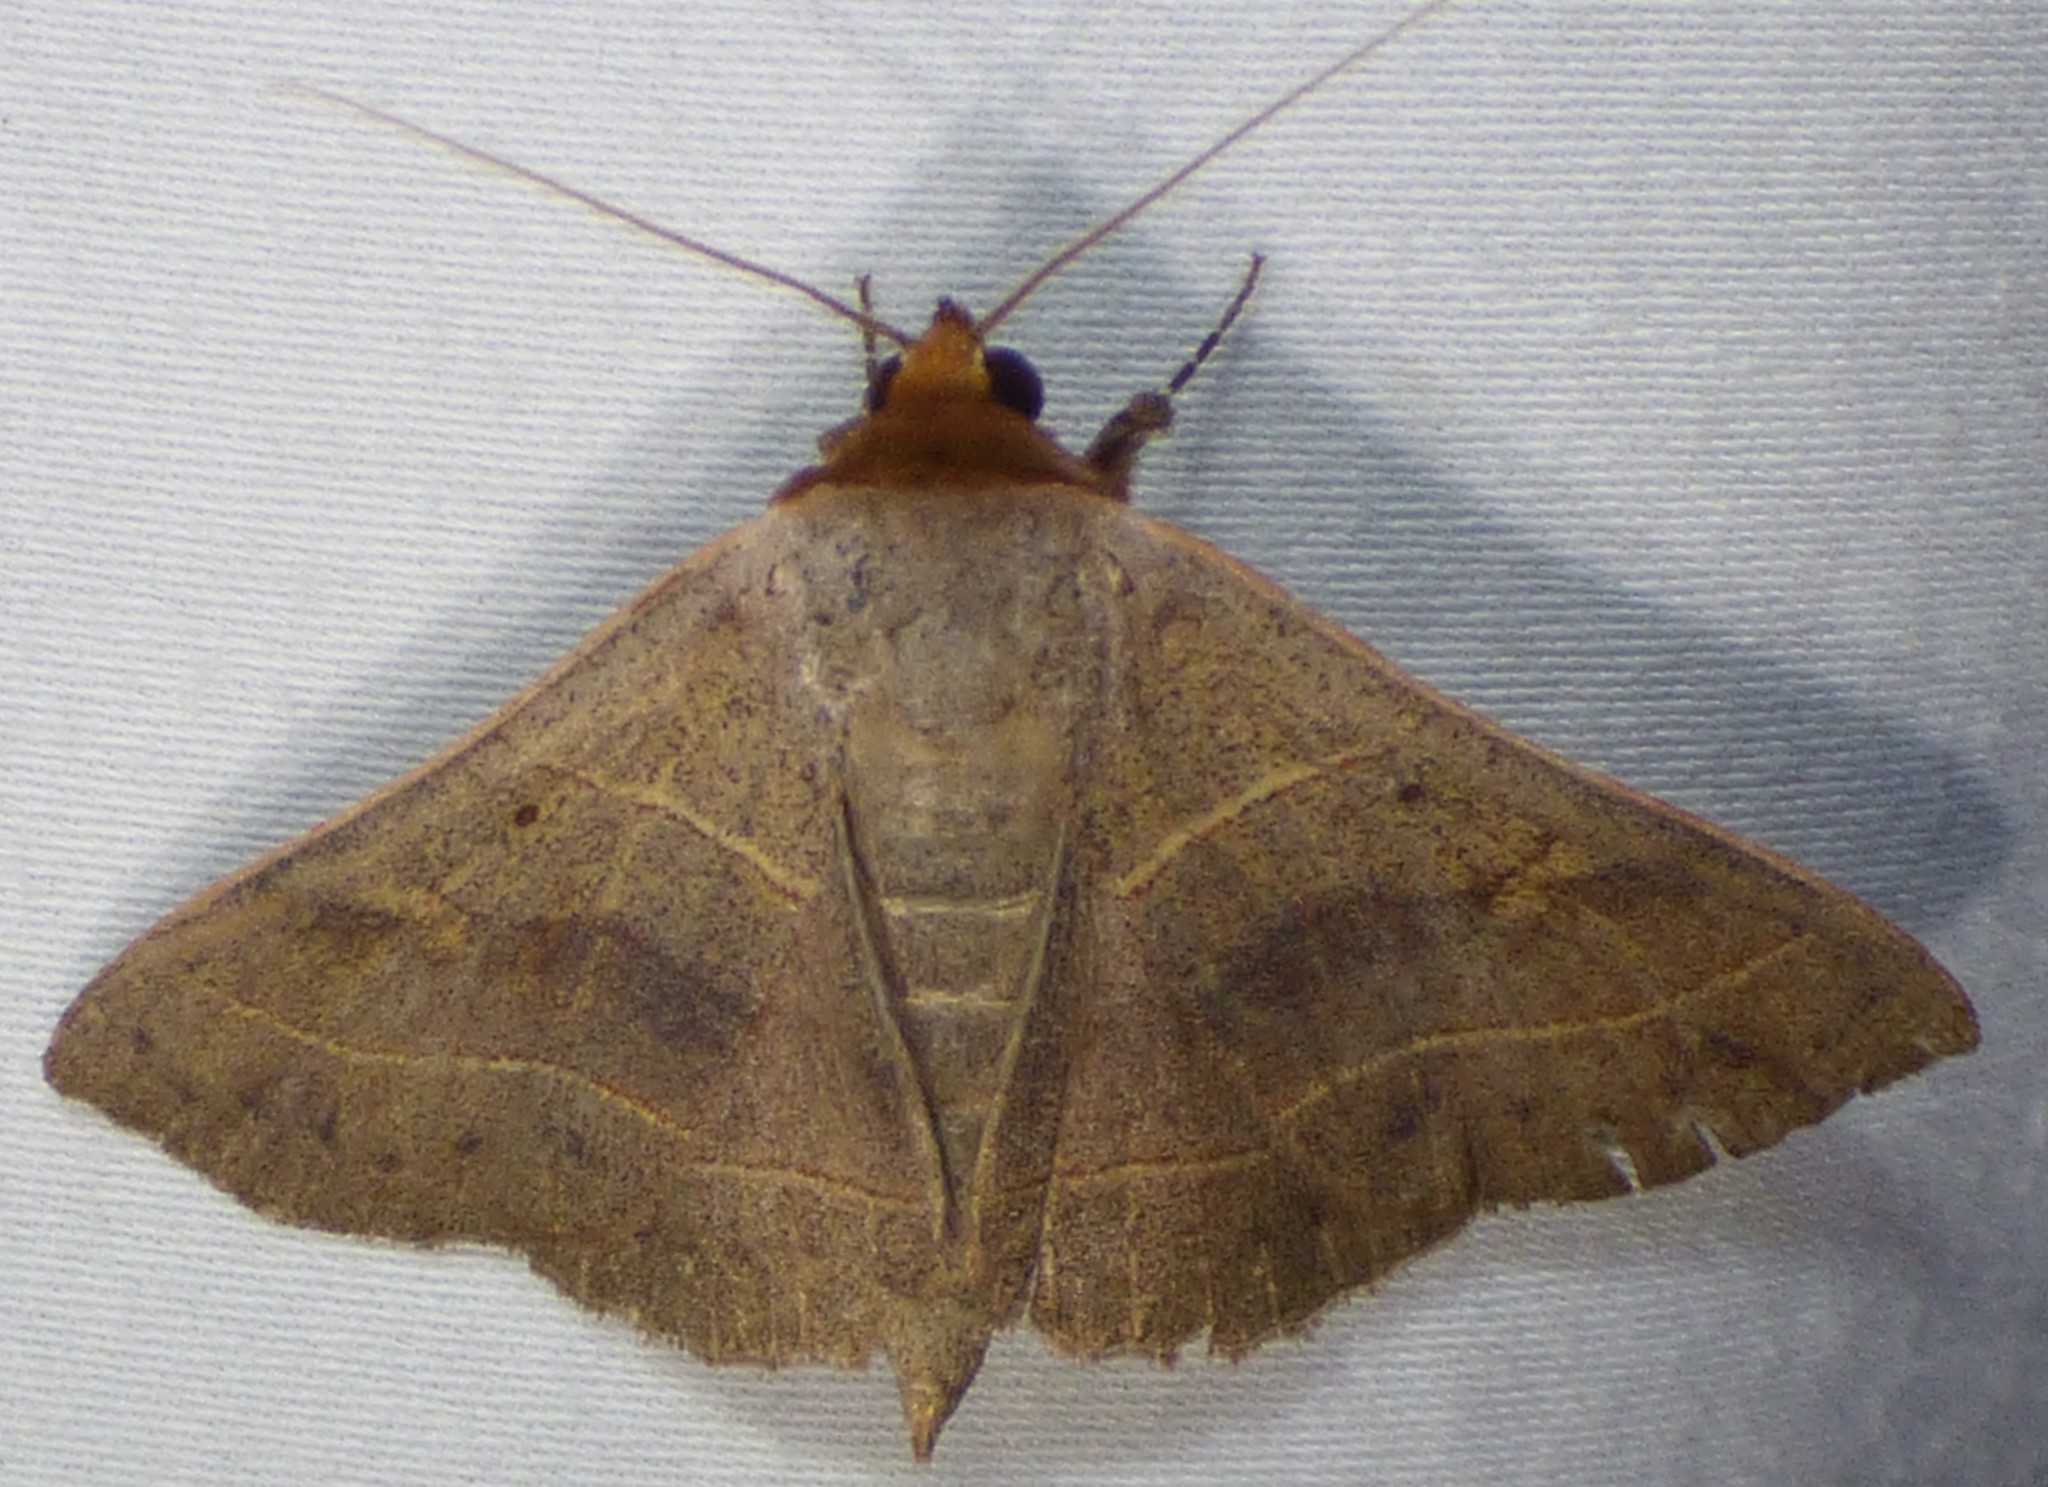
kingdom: Animalia
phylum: Arthropoda
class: Insecta
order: Lepidoptera
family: Erebidae
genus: Panopoda
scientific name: Panopoda rufimargo
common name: Red-lined panopoda moth
